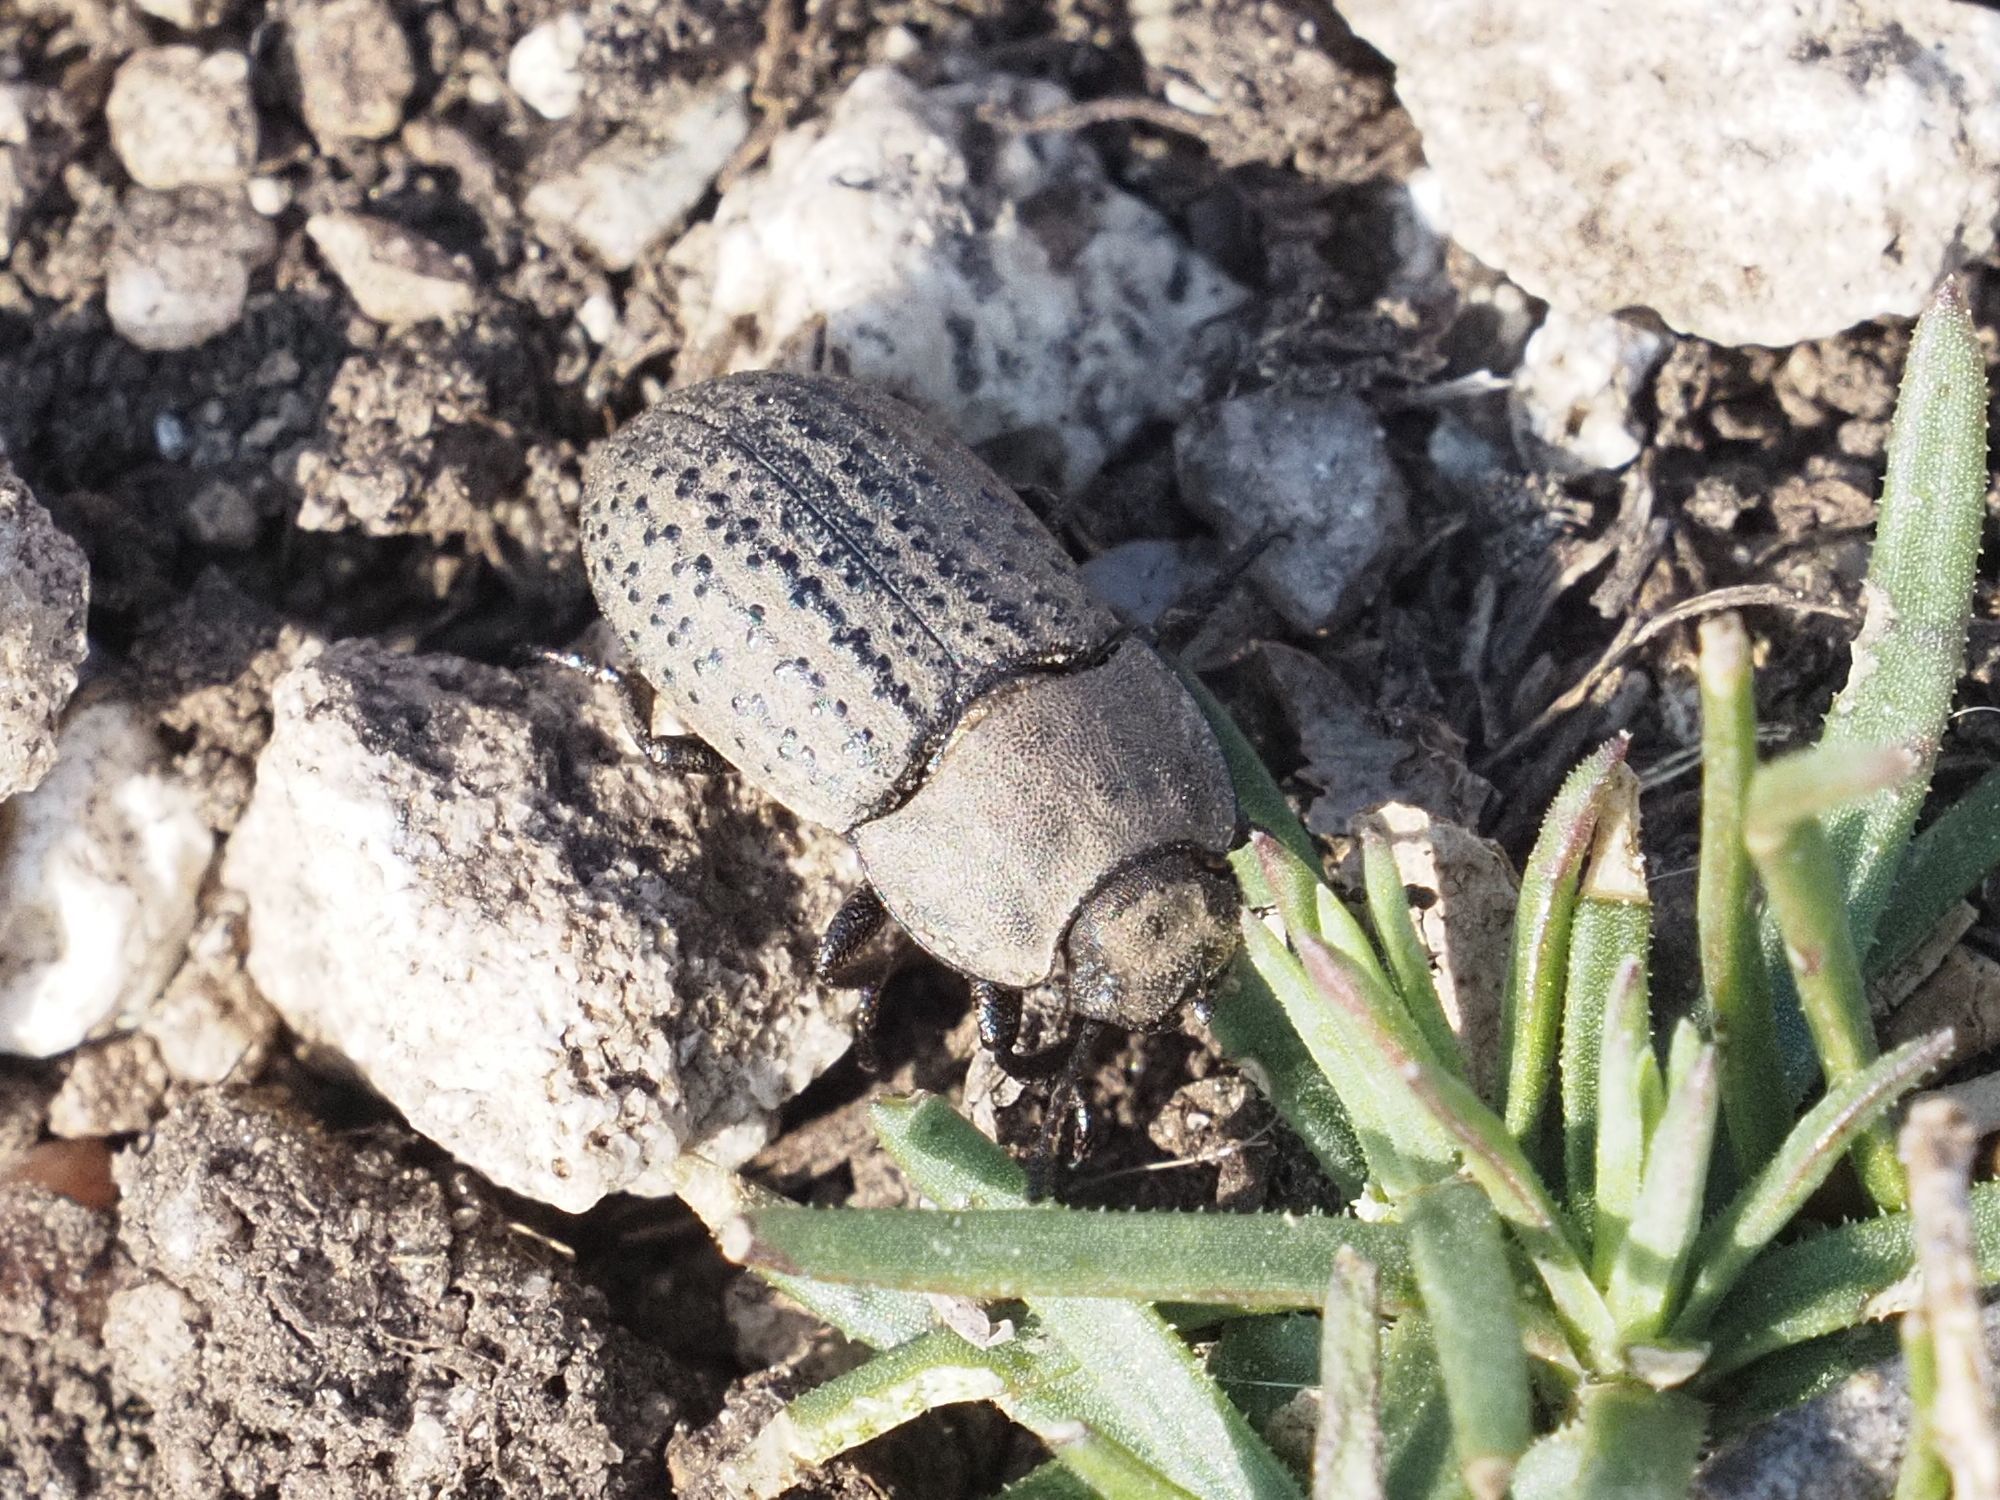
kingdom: Animalia
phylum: Arthropoda
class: Insecta
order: Coleoptera
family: Tenebrionidae
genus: Opatrum
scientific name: Opatrum sabulosum
